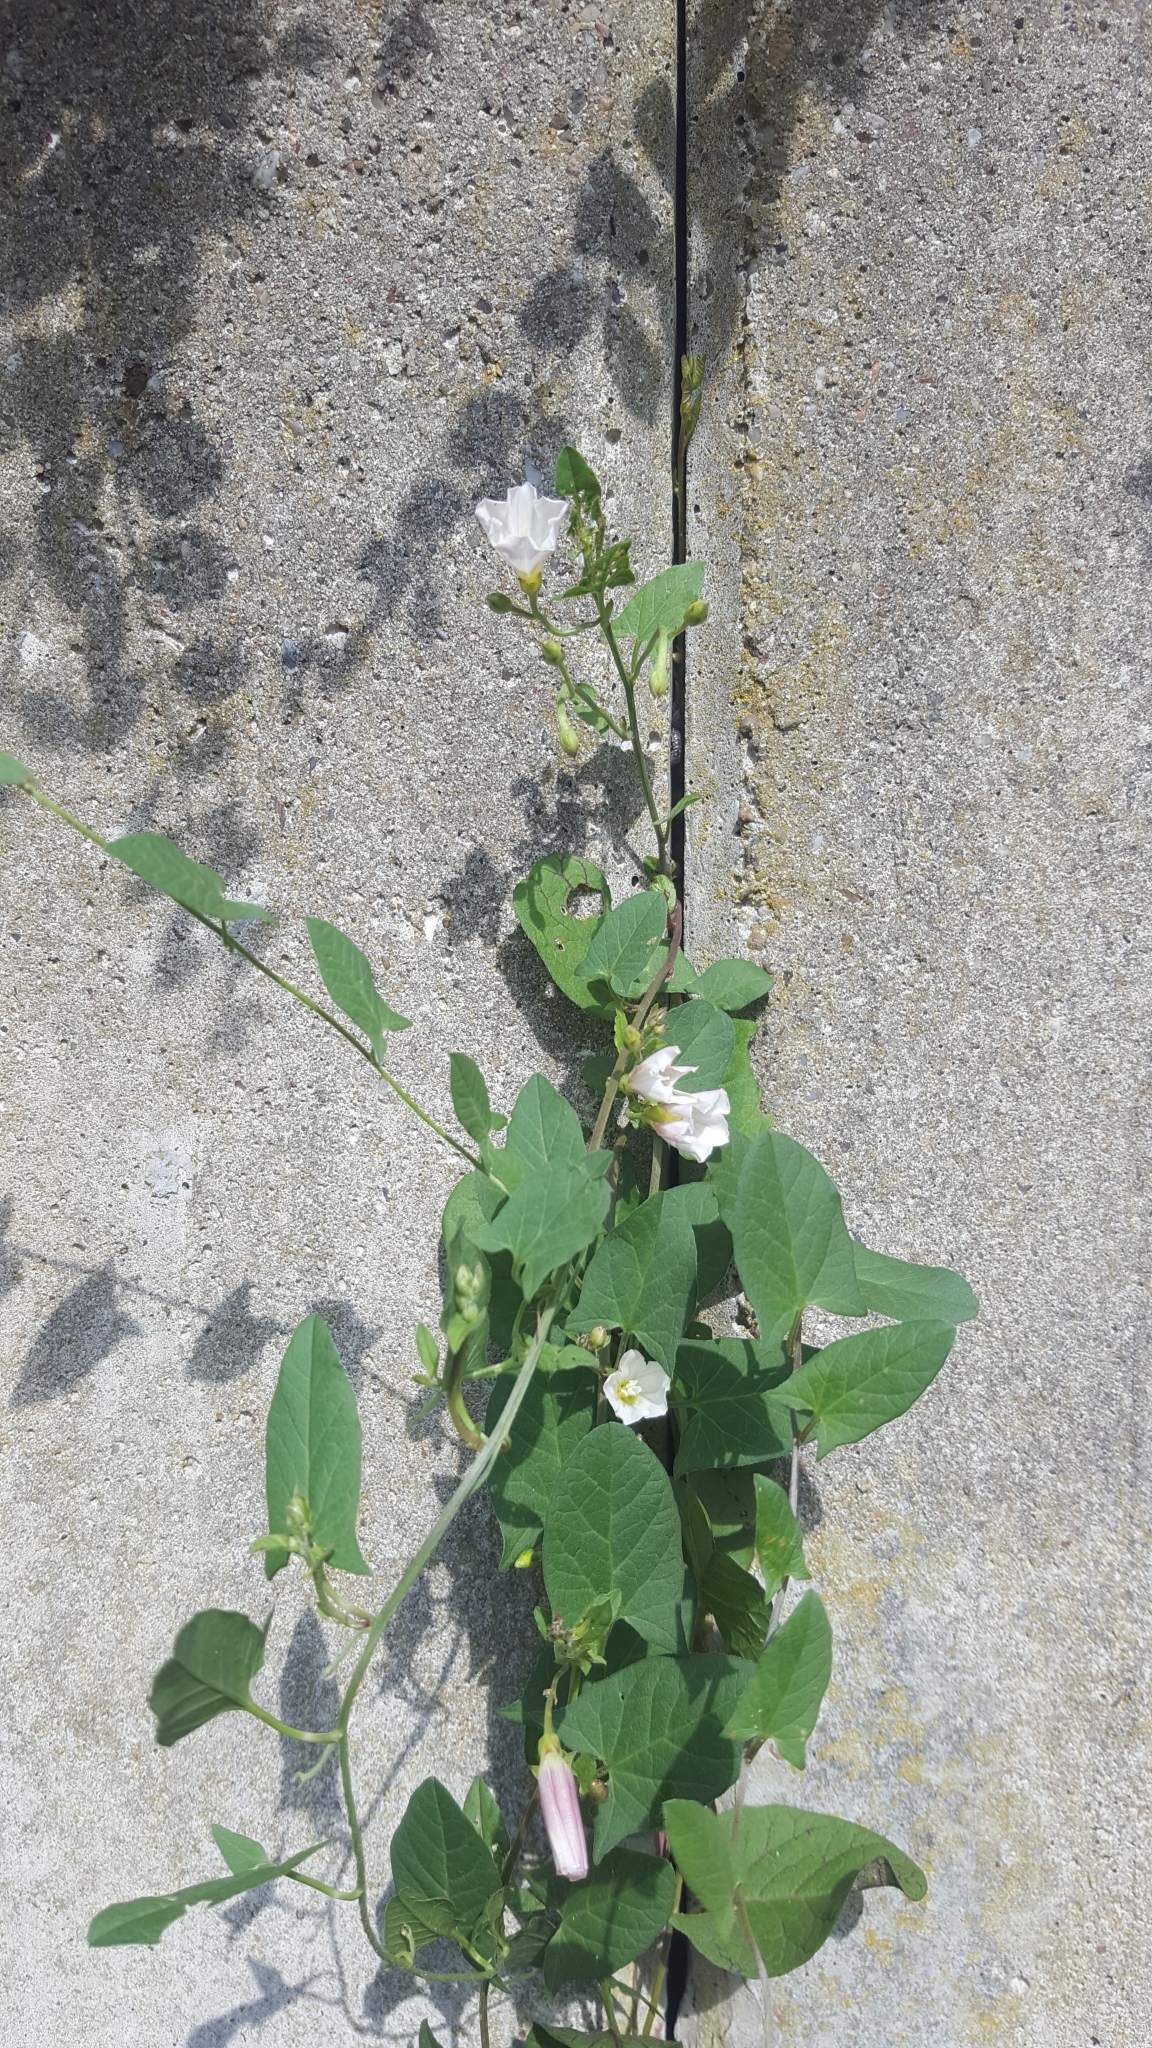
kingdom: Plantae
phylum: Tracheophyta
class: Magnoliopsida
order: Solanales
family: Convolvulaceae
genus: Convolvulus
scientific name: Convolvulus arvensis
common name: Field bindweed
